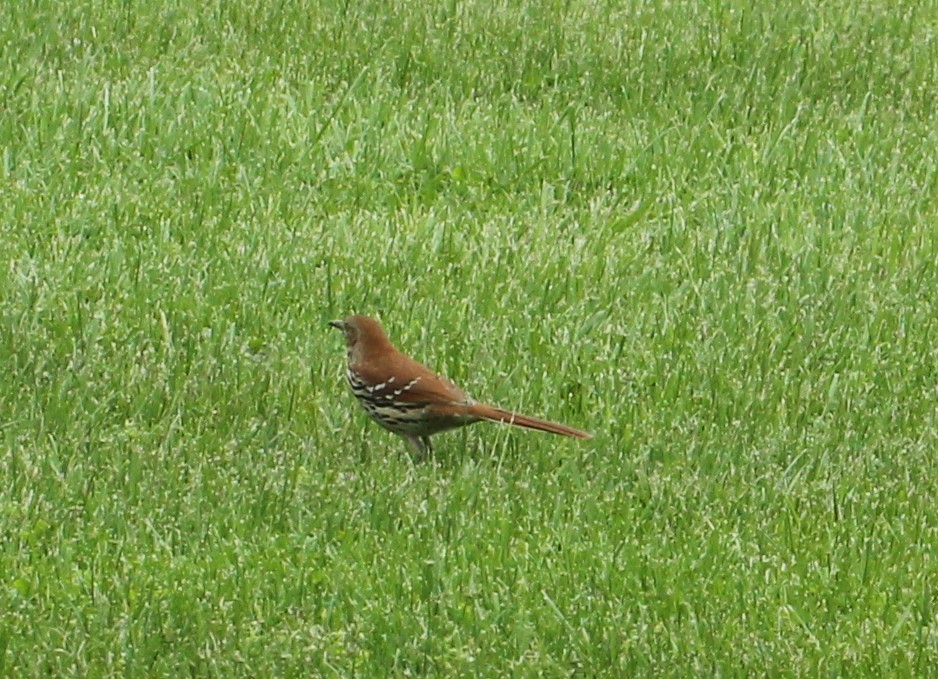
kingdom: Animalia
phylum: Chordata
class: Aves
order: Passeriformes
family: Mimidae
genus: Toxostoma
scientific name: Toxostoma rufum
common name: Brown thrasher
